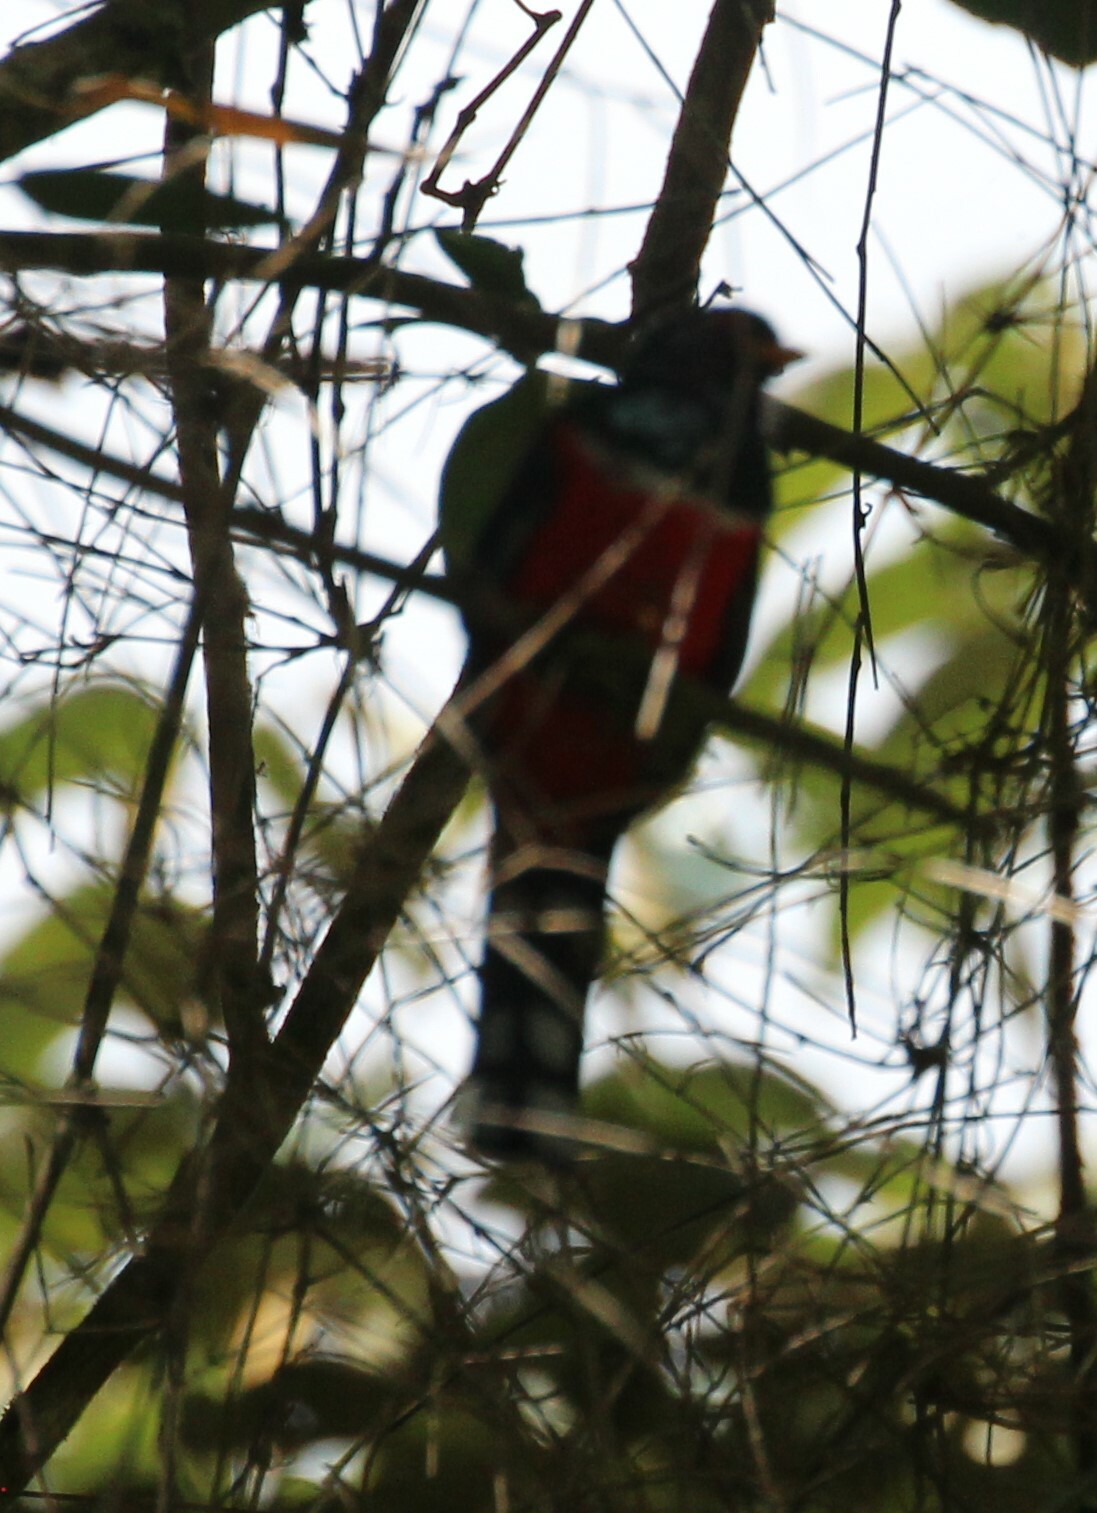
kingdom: Animalia
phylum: Chordata
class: Aves
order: Trogoniformes
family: Trogonidae
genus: Trogon
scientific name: Trogon personatus
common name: Masked trogon
